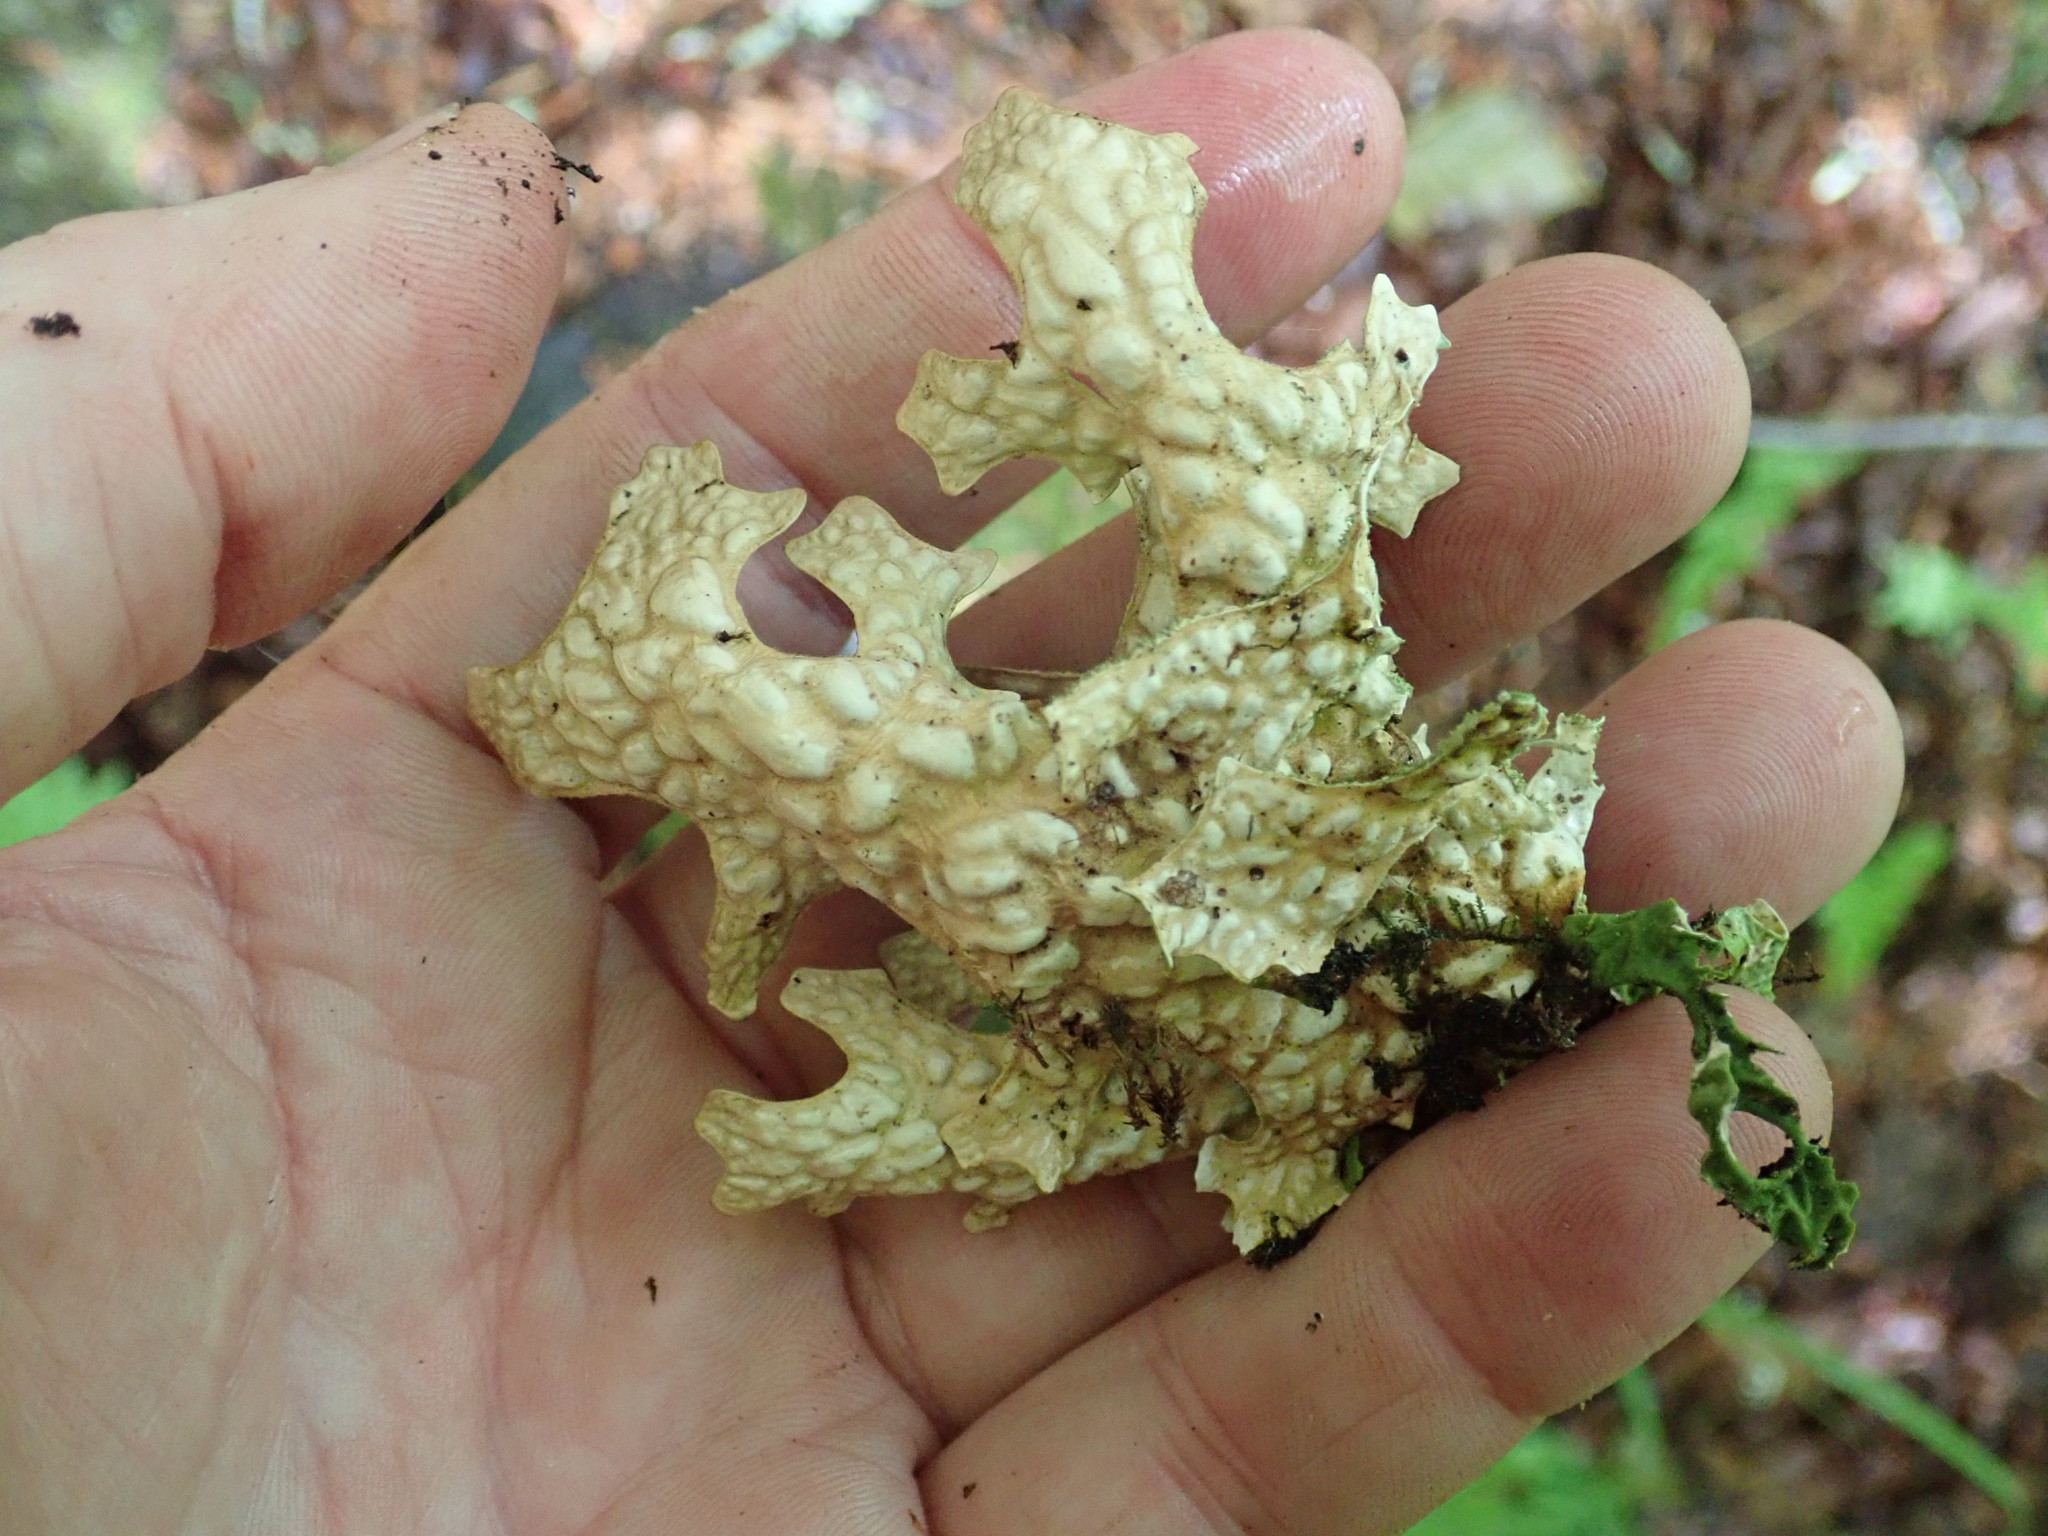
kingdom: Fungi
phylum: Ascomycota
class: Lecanoromycetes
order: Peltigerales
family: Lobariaceae
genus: Lobaria
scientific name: Lobaria pulmonaria
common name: Lungwort
